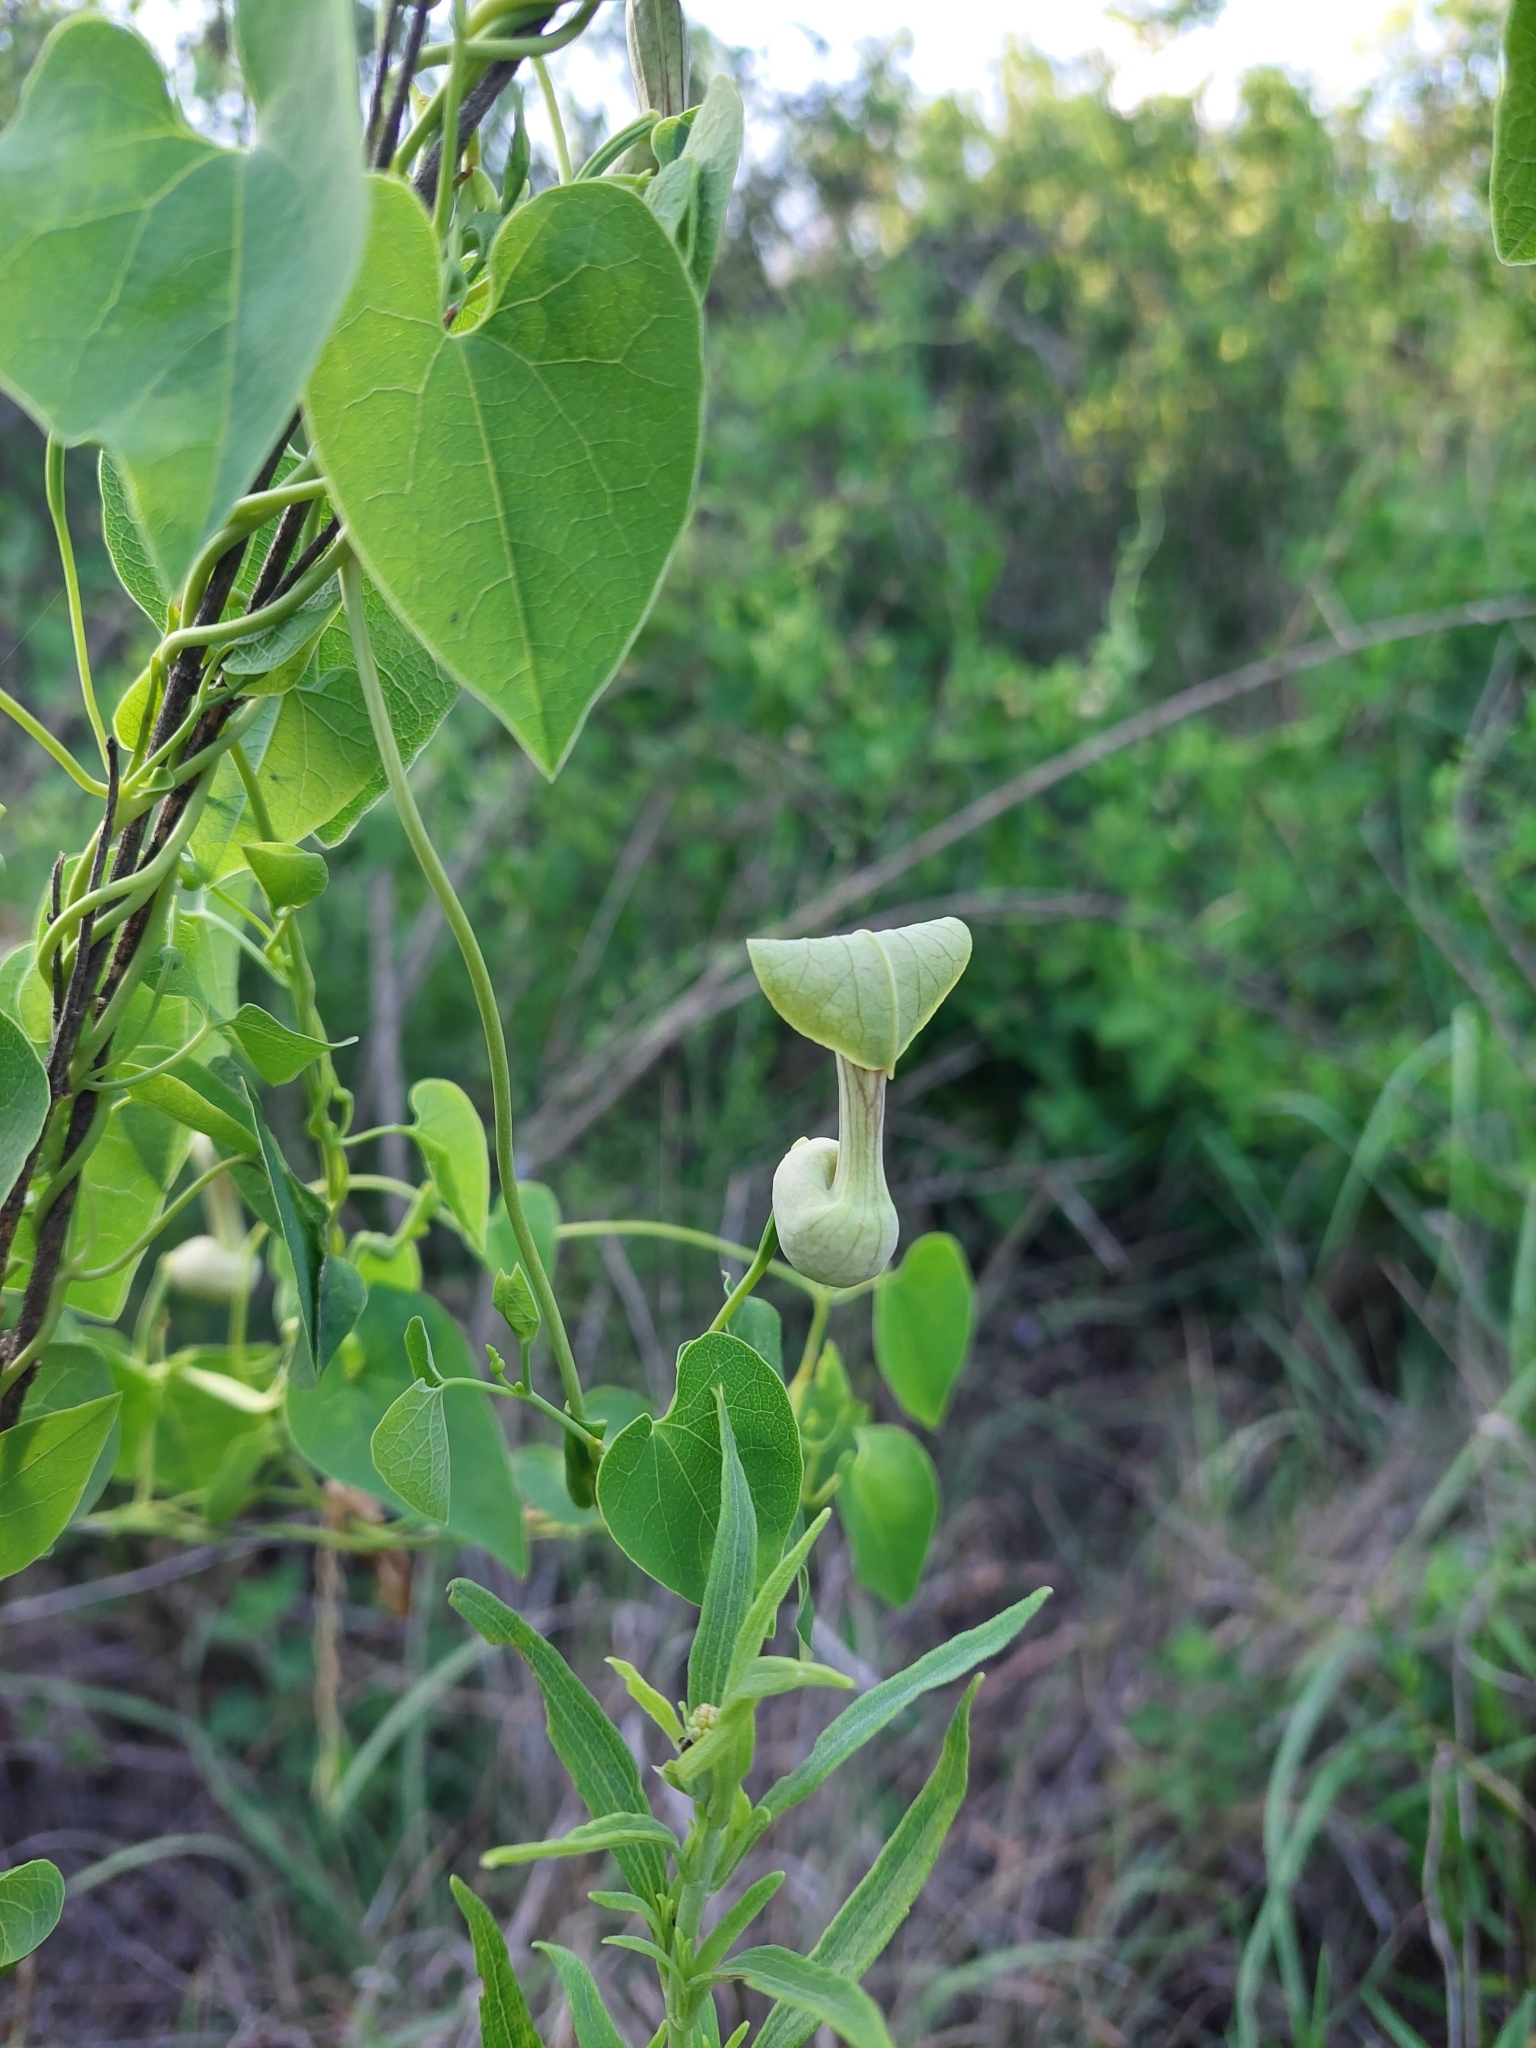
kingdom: Plantae
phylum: Tracheophyta
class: Magnoliopsida
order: Piperales
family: Aristolochiaceae
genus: Aristolochia
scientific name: Aristolochia argentina
